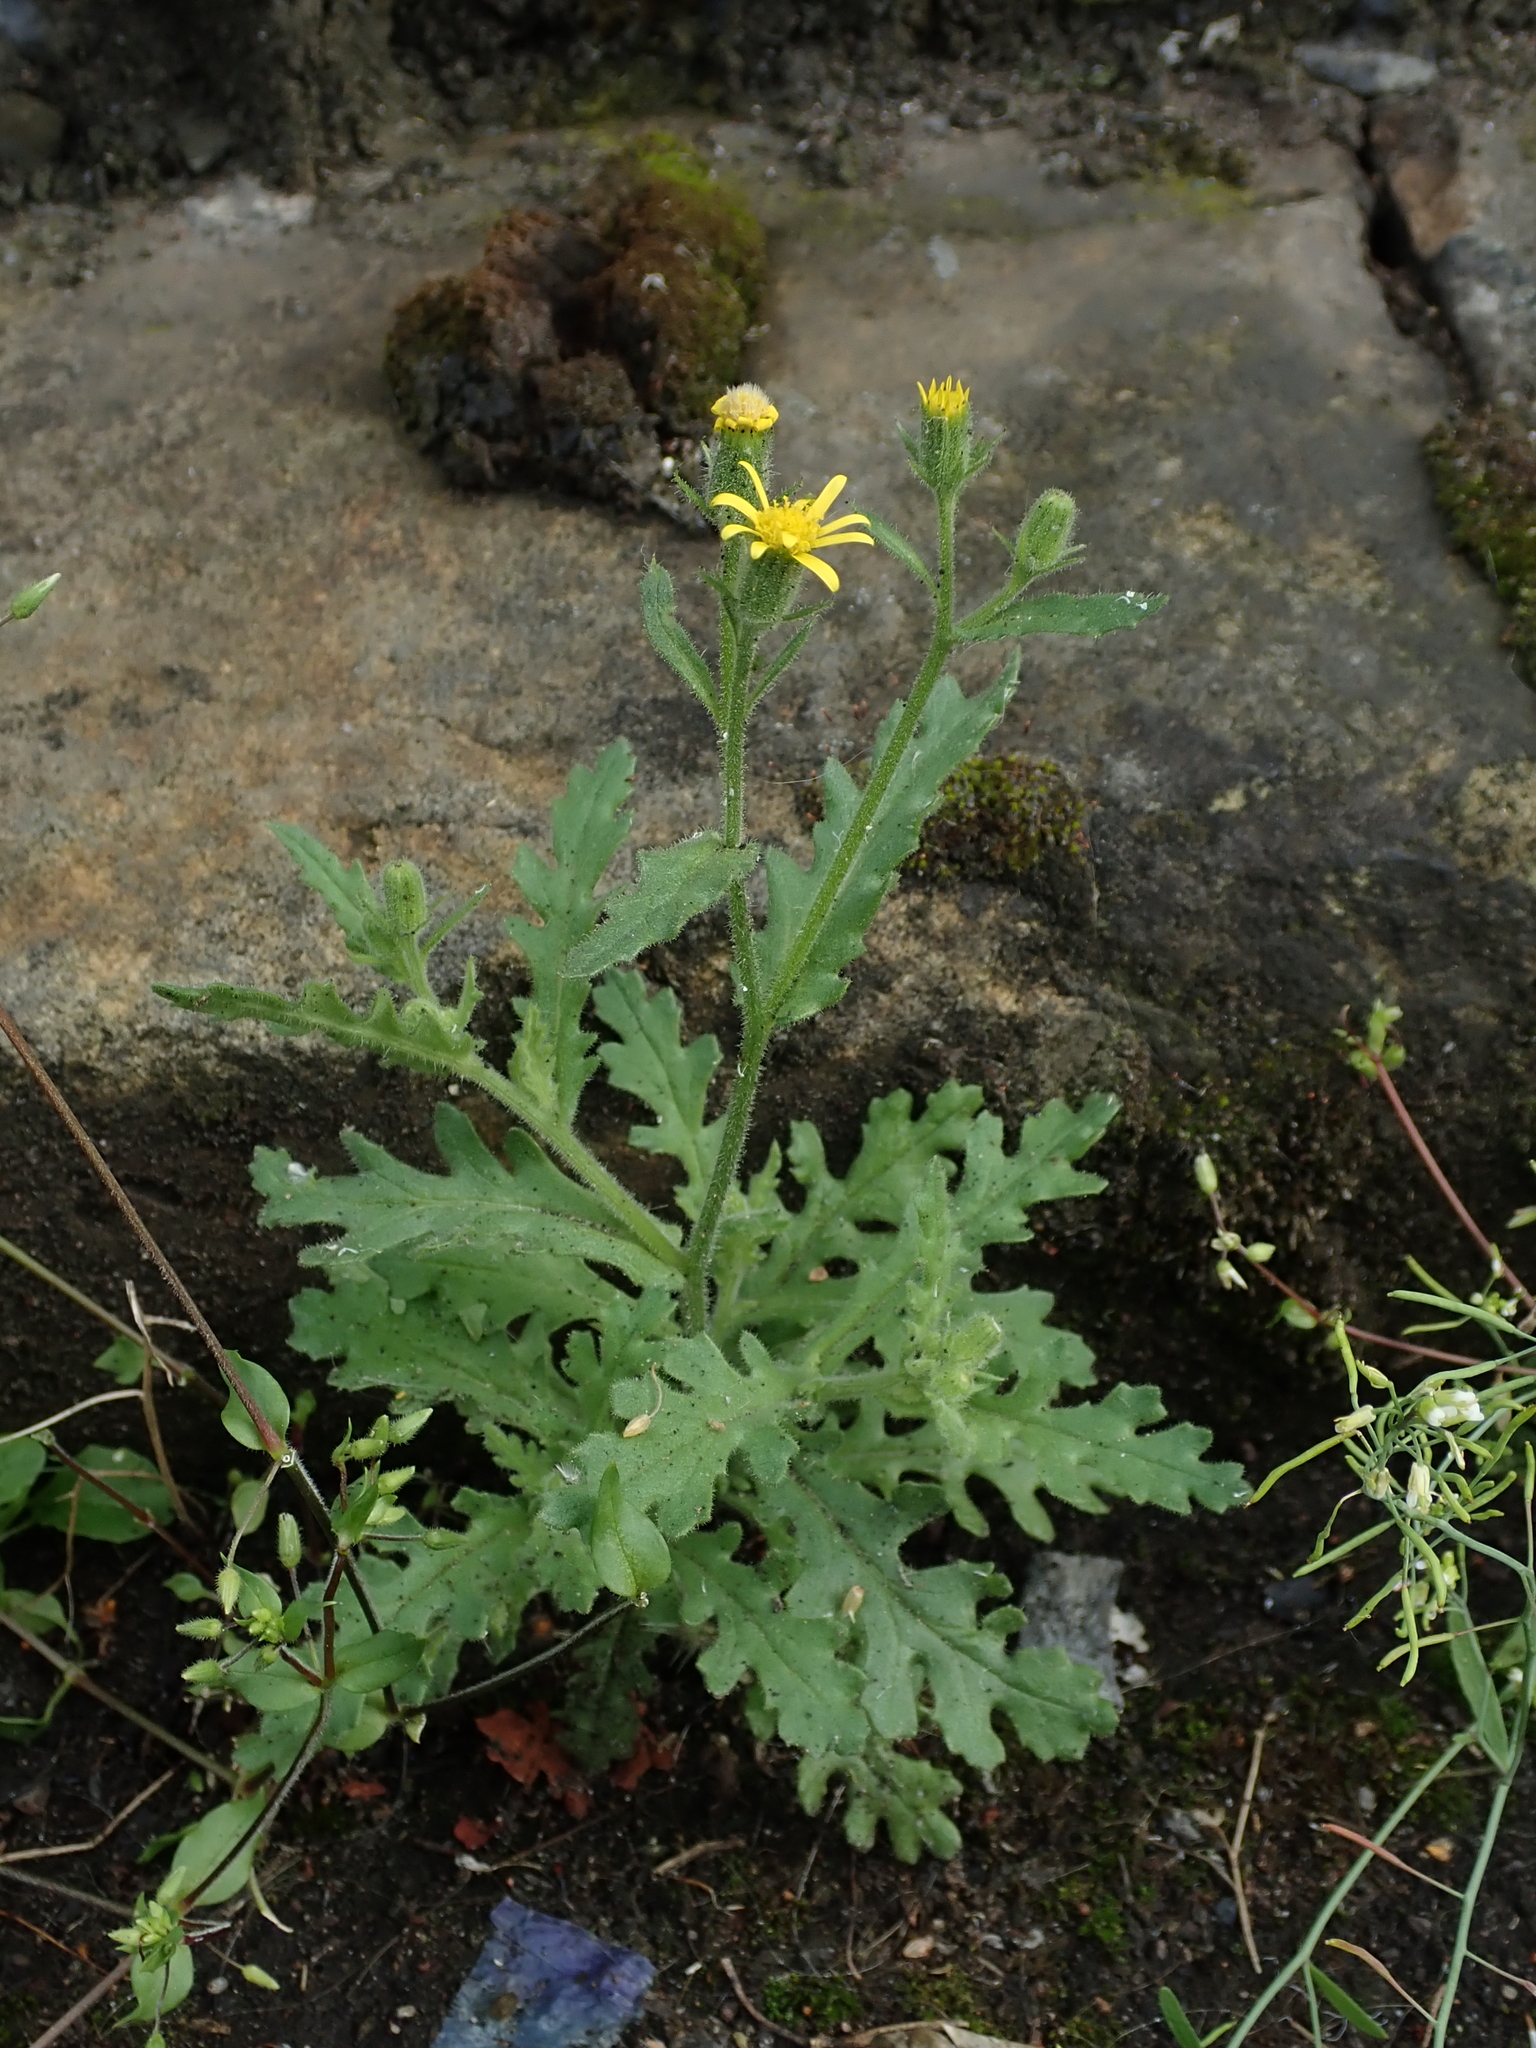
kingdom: Plantae
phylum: Tracheophyta
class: Magnoliopsida
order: Asterales
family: Asteraceae
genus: Senecio
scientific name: Senecio viscosus
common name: Sticky groundsel
